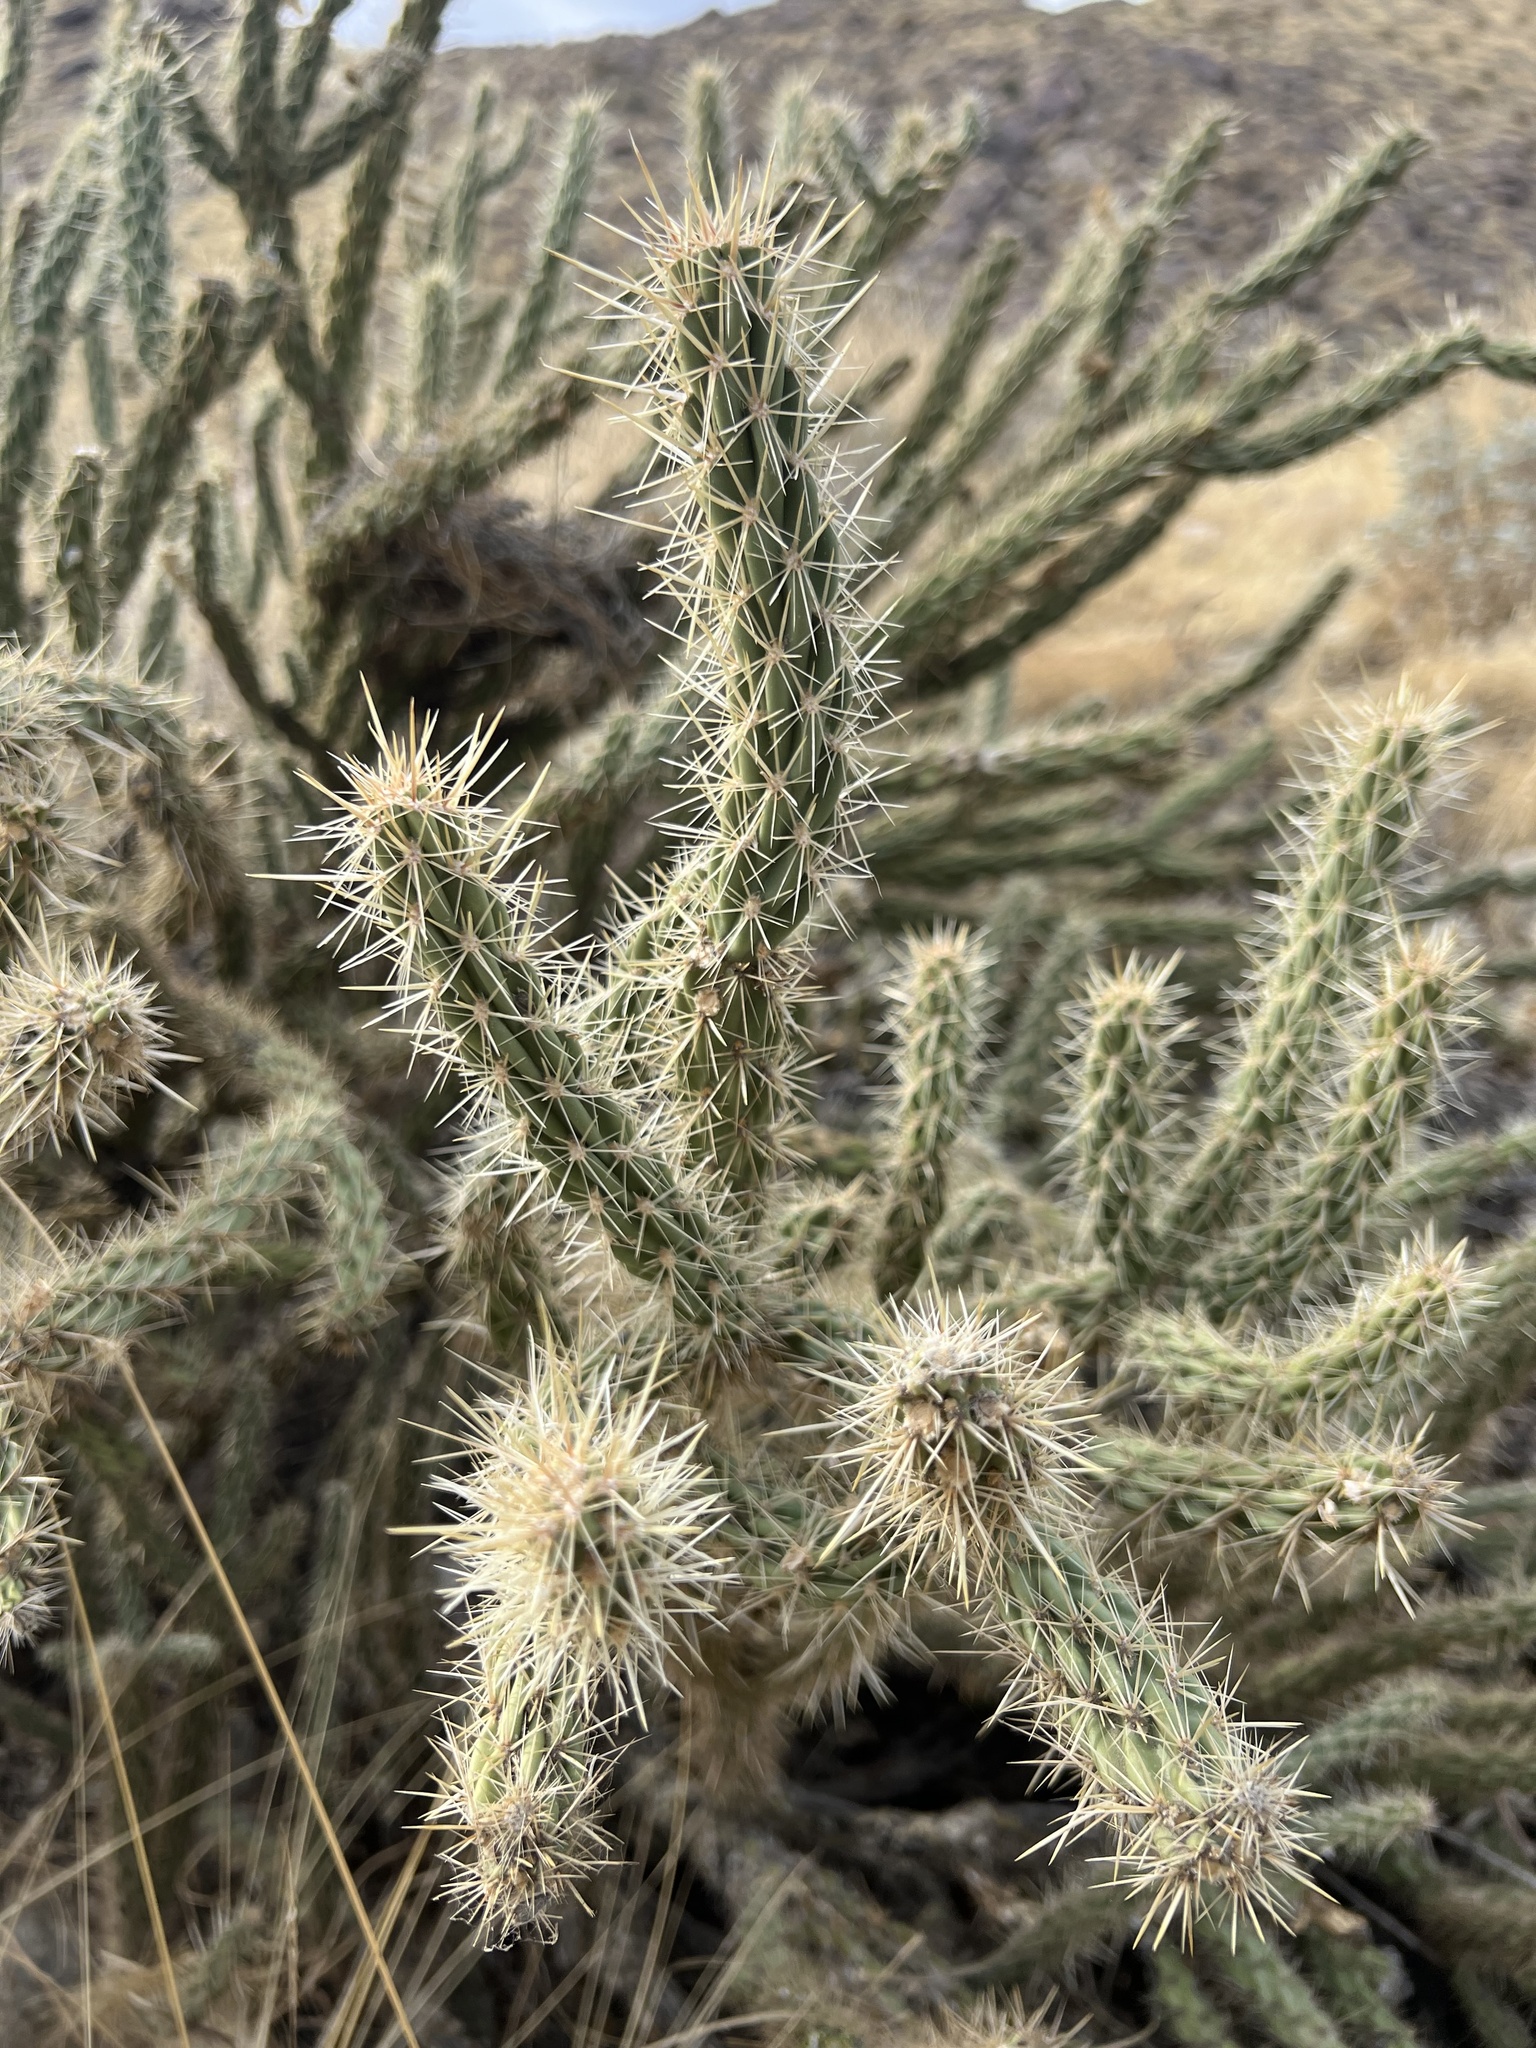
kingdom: Plantae
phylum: Tracheophyta
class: Magnoliopsida
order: Caryophyllales
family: Cactaceae
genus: Cylindropuntia
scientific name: Cylindropuntia ganderi
